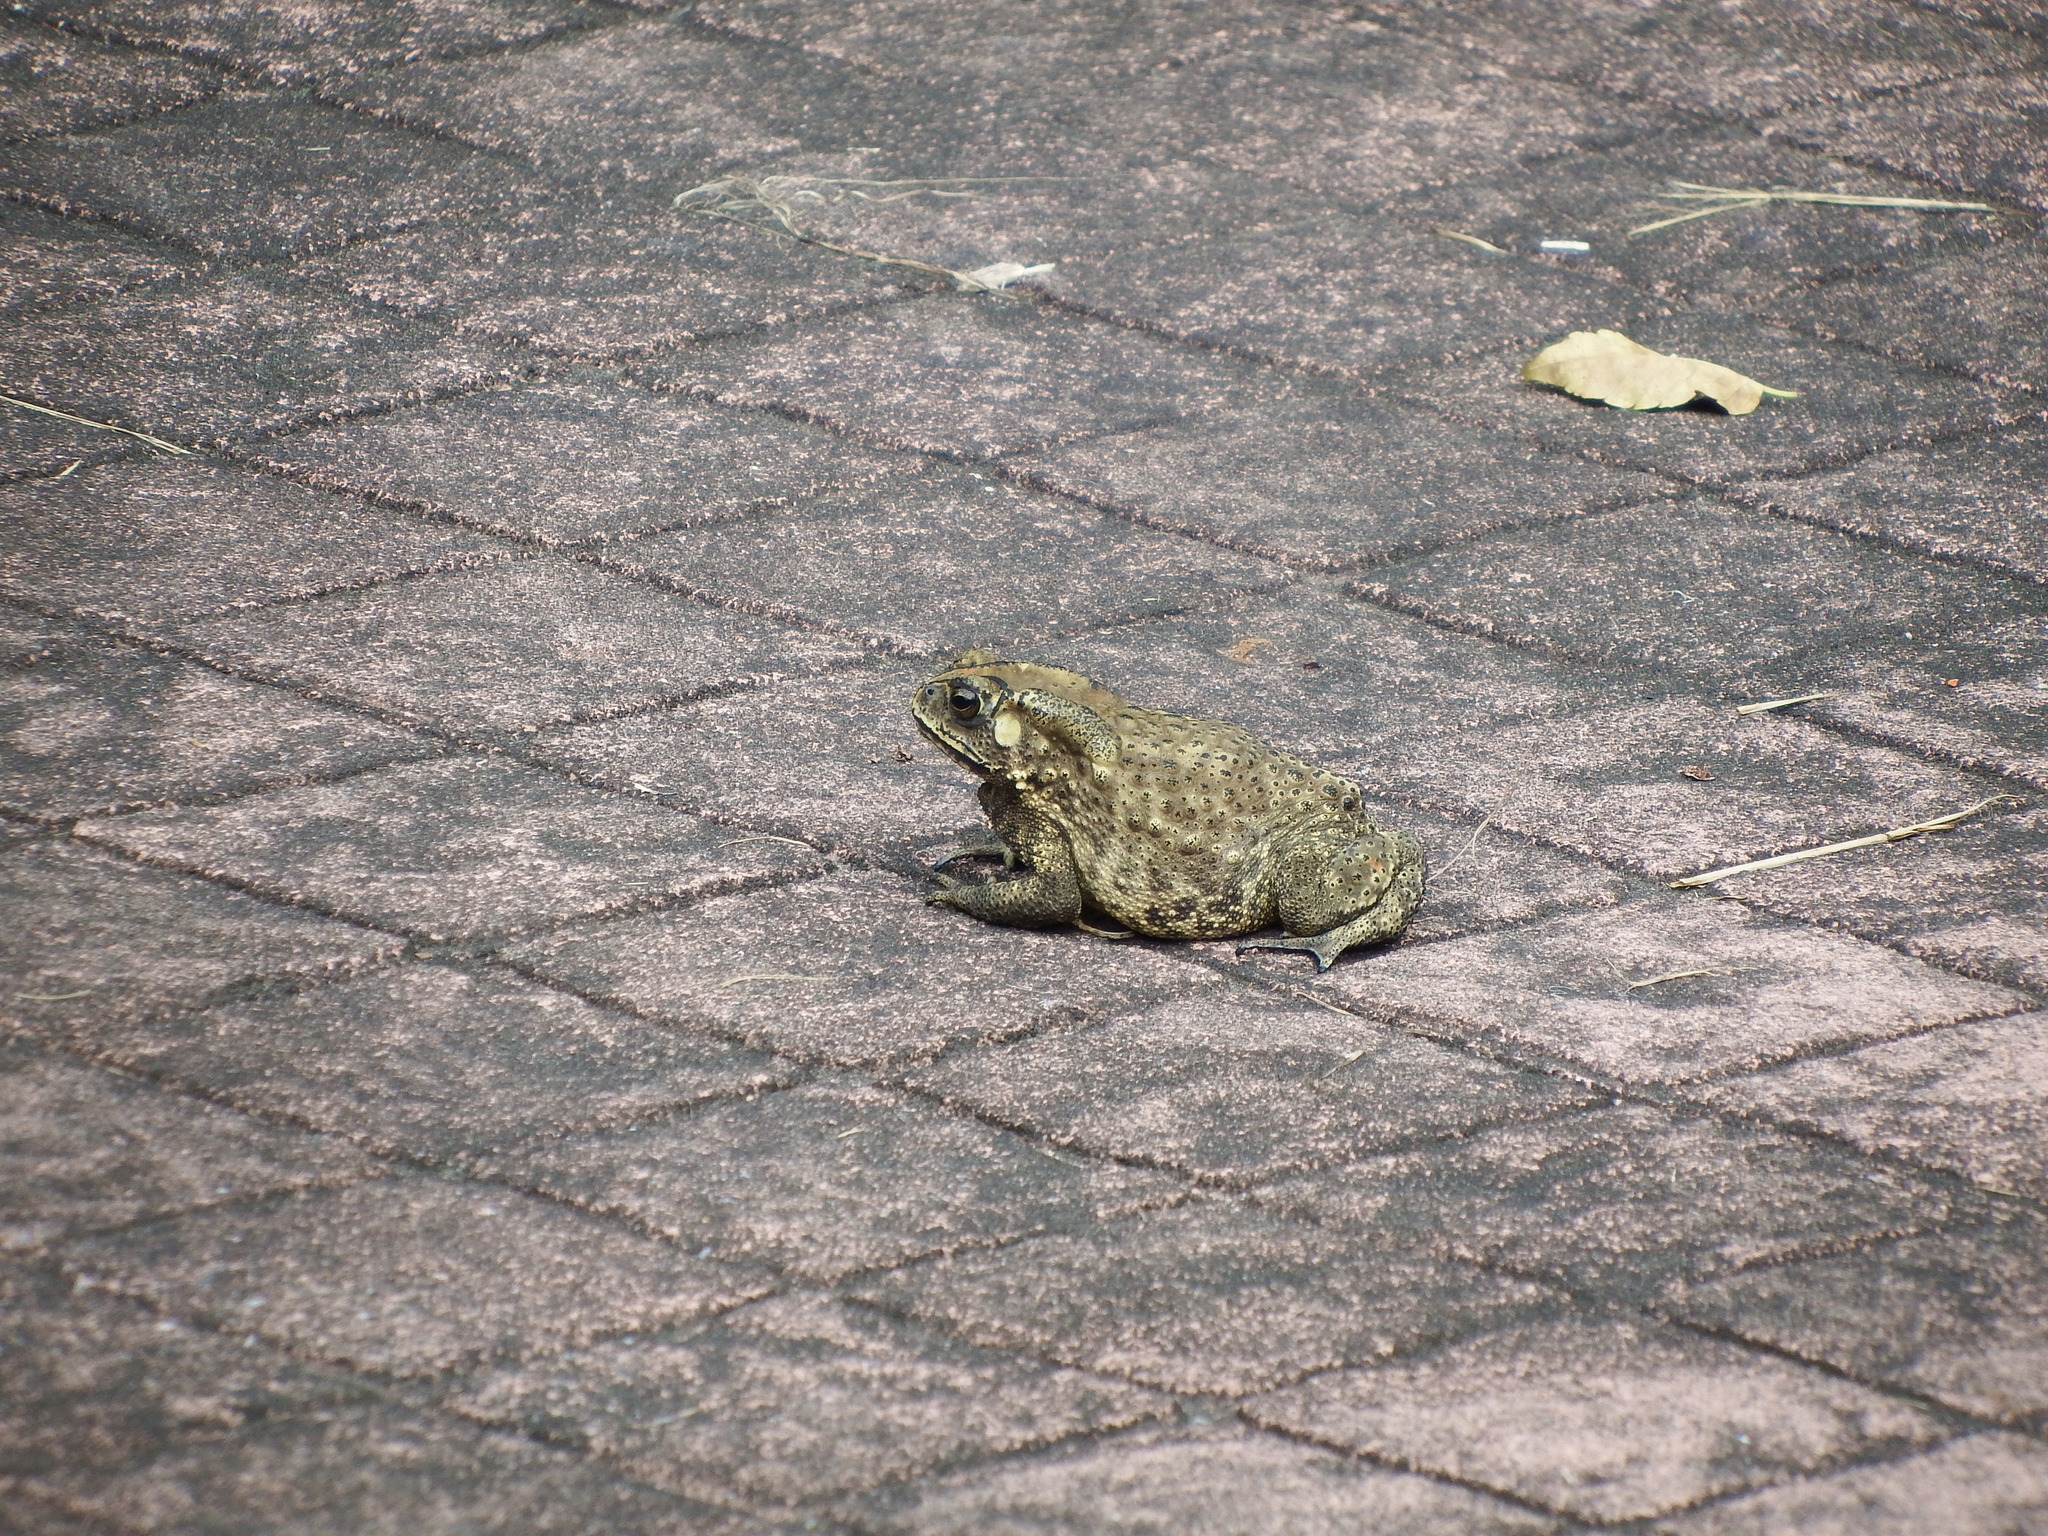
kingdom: Animalia
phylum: Chordata
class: Amphibia
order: Anura
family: Bufonidae
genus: Duttaphrynus
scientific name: Duttaphrynus melanostictus
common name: Common sunda toad
